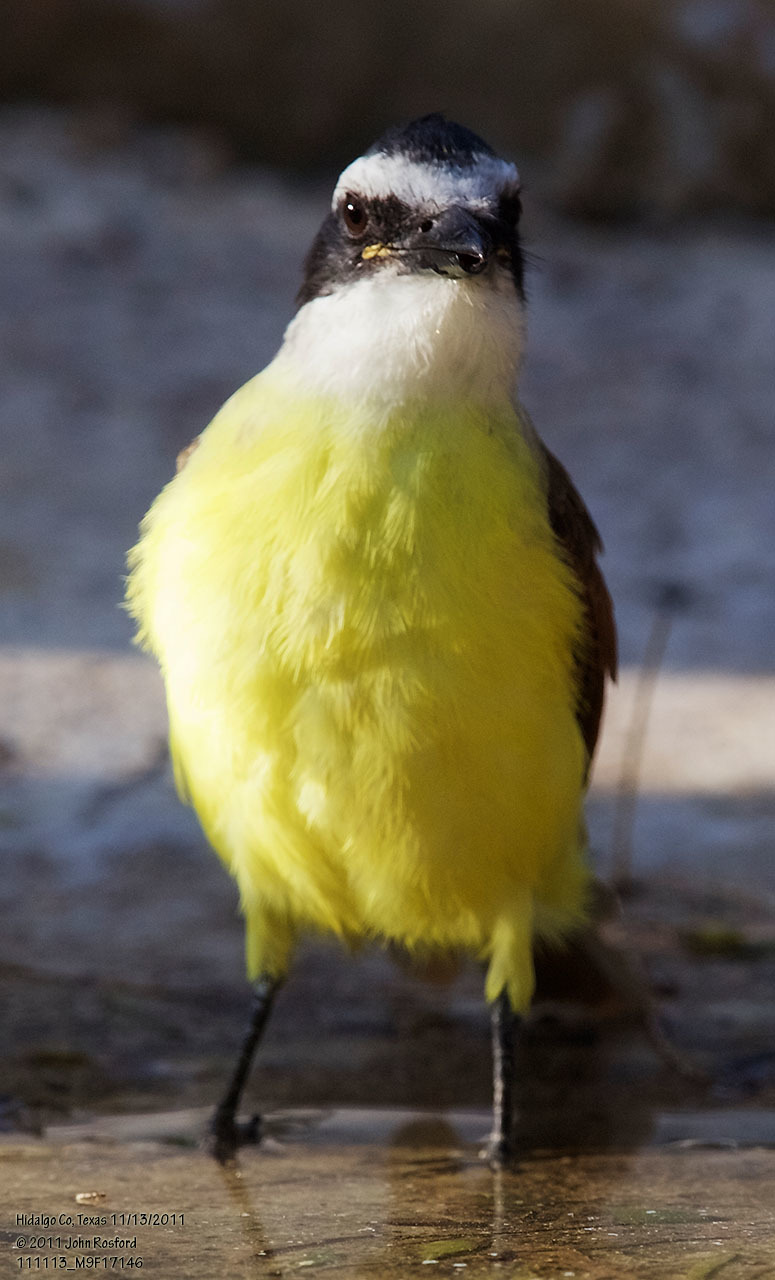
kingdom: Animalia
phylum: Chordata
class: Aves
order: Passeriformes
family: Tyrannidae
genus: Pitangus
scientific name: Pitangus sulphuratus
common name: Great kiskadee
